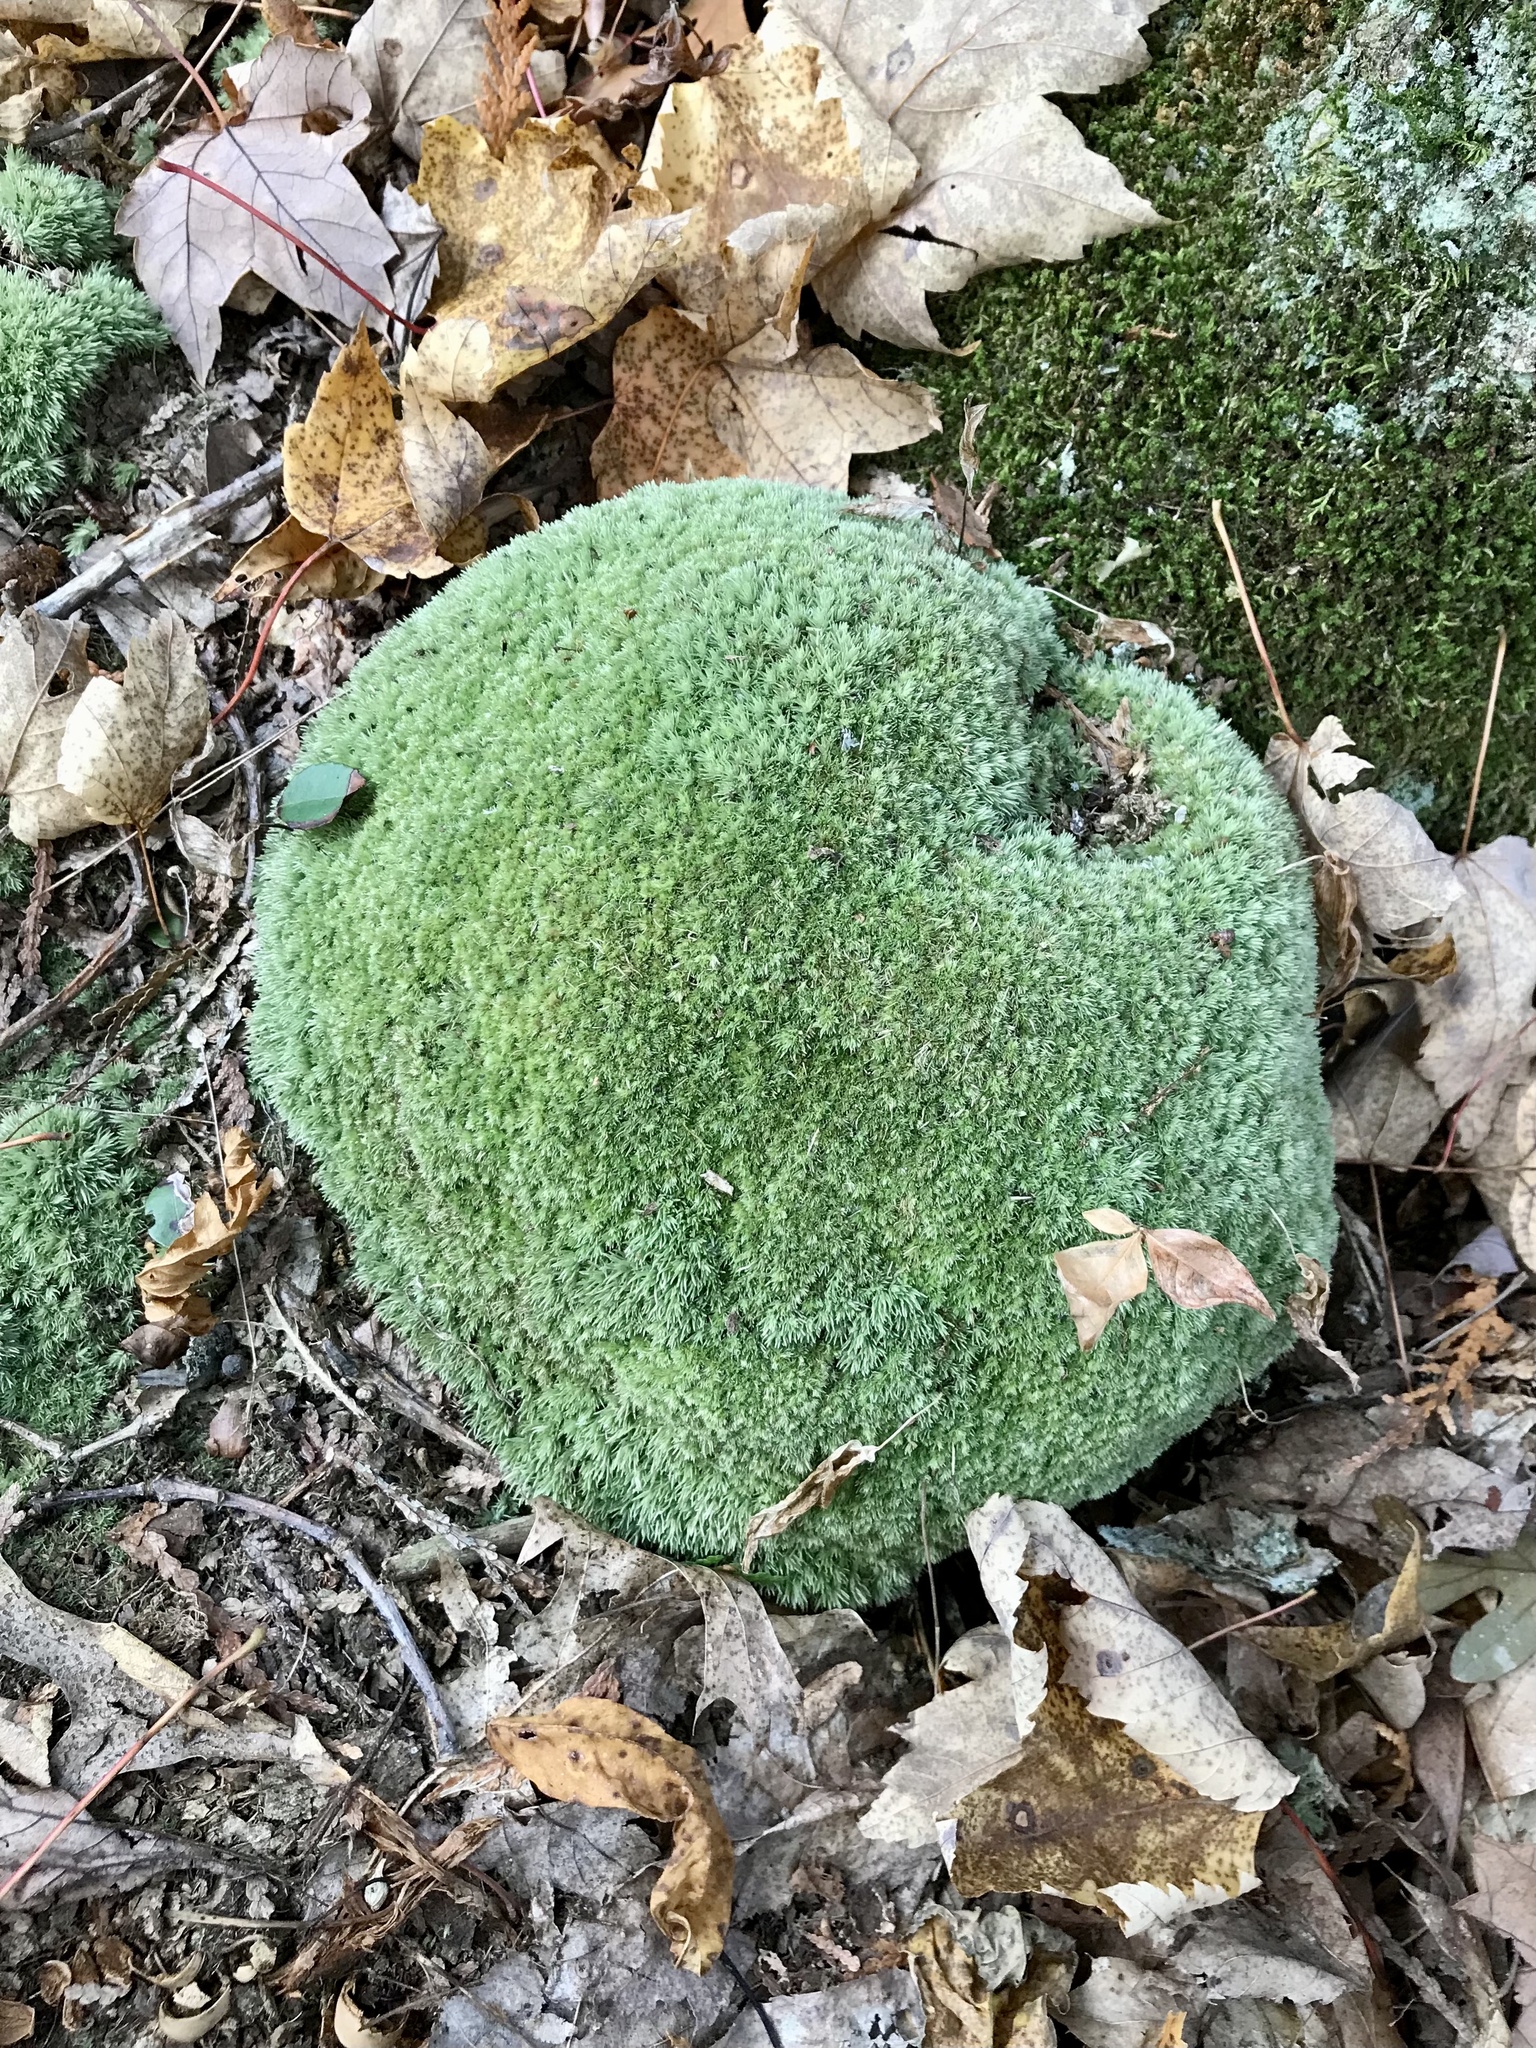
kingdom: Plantae
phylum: Bryophyta
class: Bryopsida
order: Dicranales
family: Leucobryaceae
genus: Leucobryum
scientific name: Leucobryum glaucum
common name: Large white-moss
